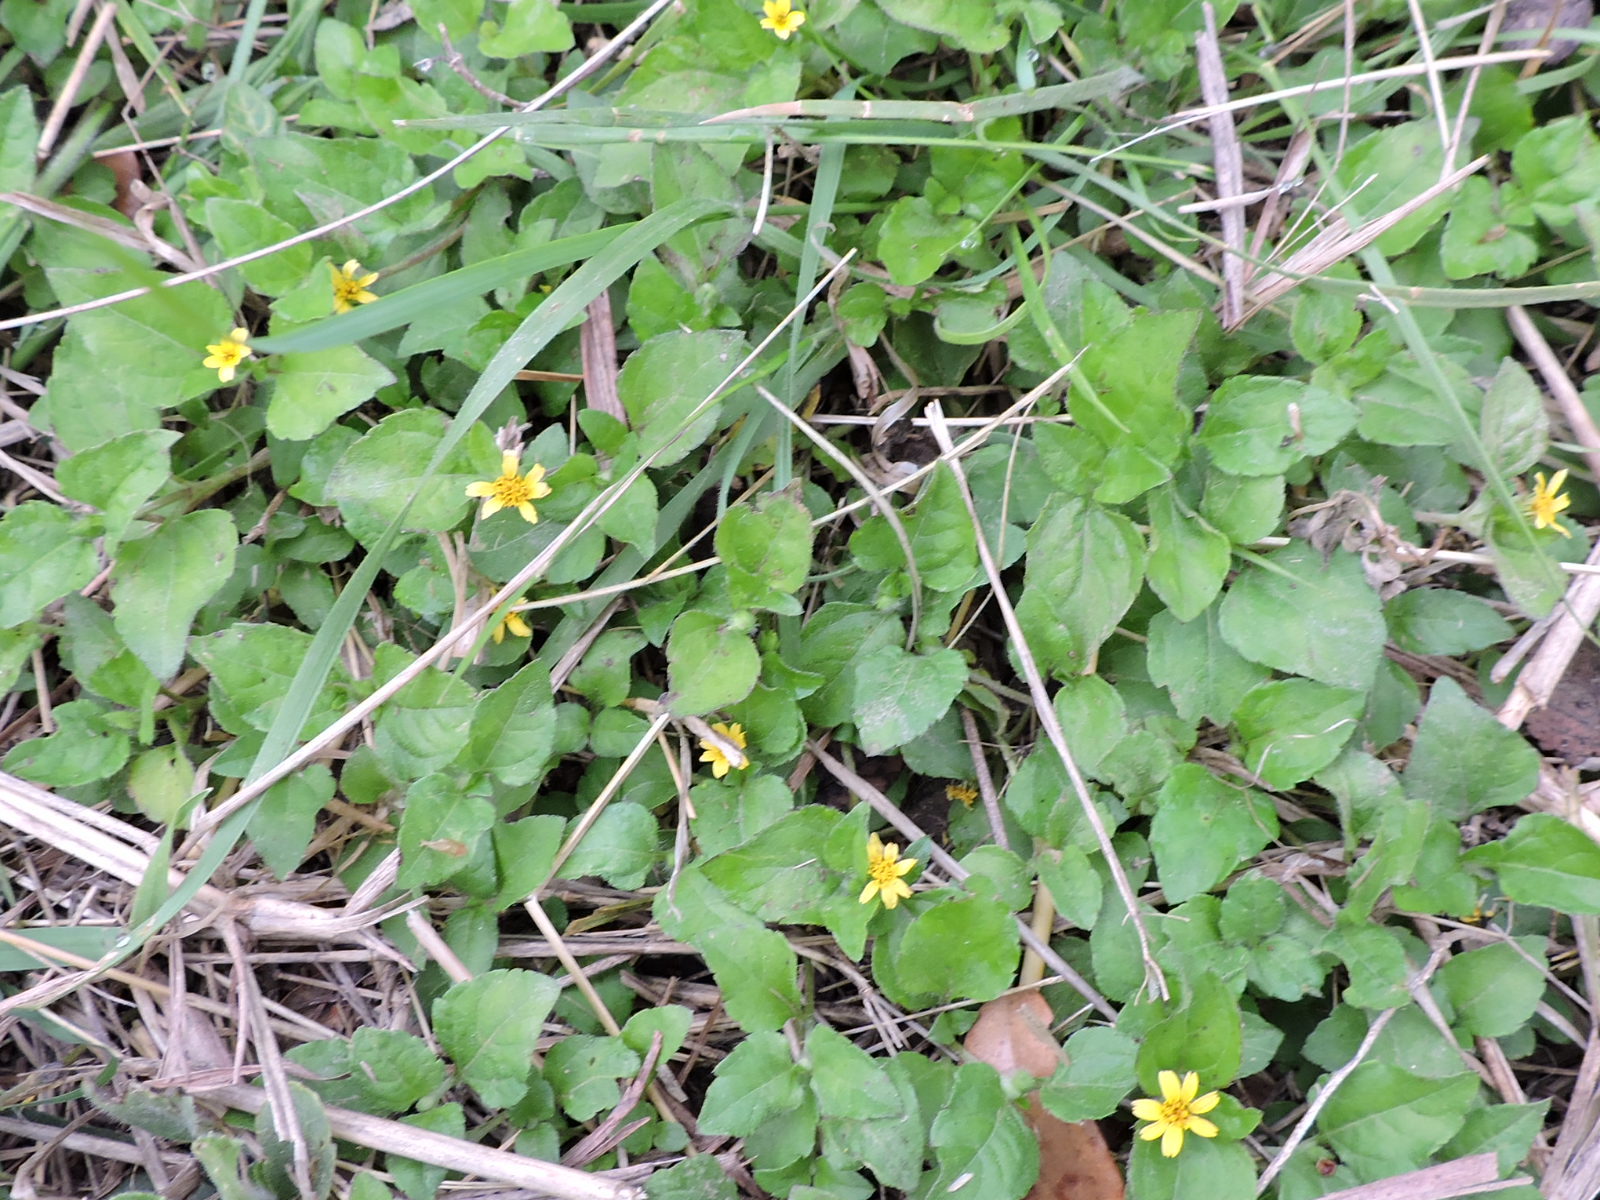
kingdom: Plantae
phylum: Tracheophyta
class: Magnoliopsida
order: Asterales
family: Asteraceae
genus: Calyptocarpus
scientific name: Calyptocarpus vialis
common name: Straggler daisy
